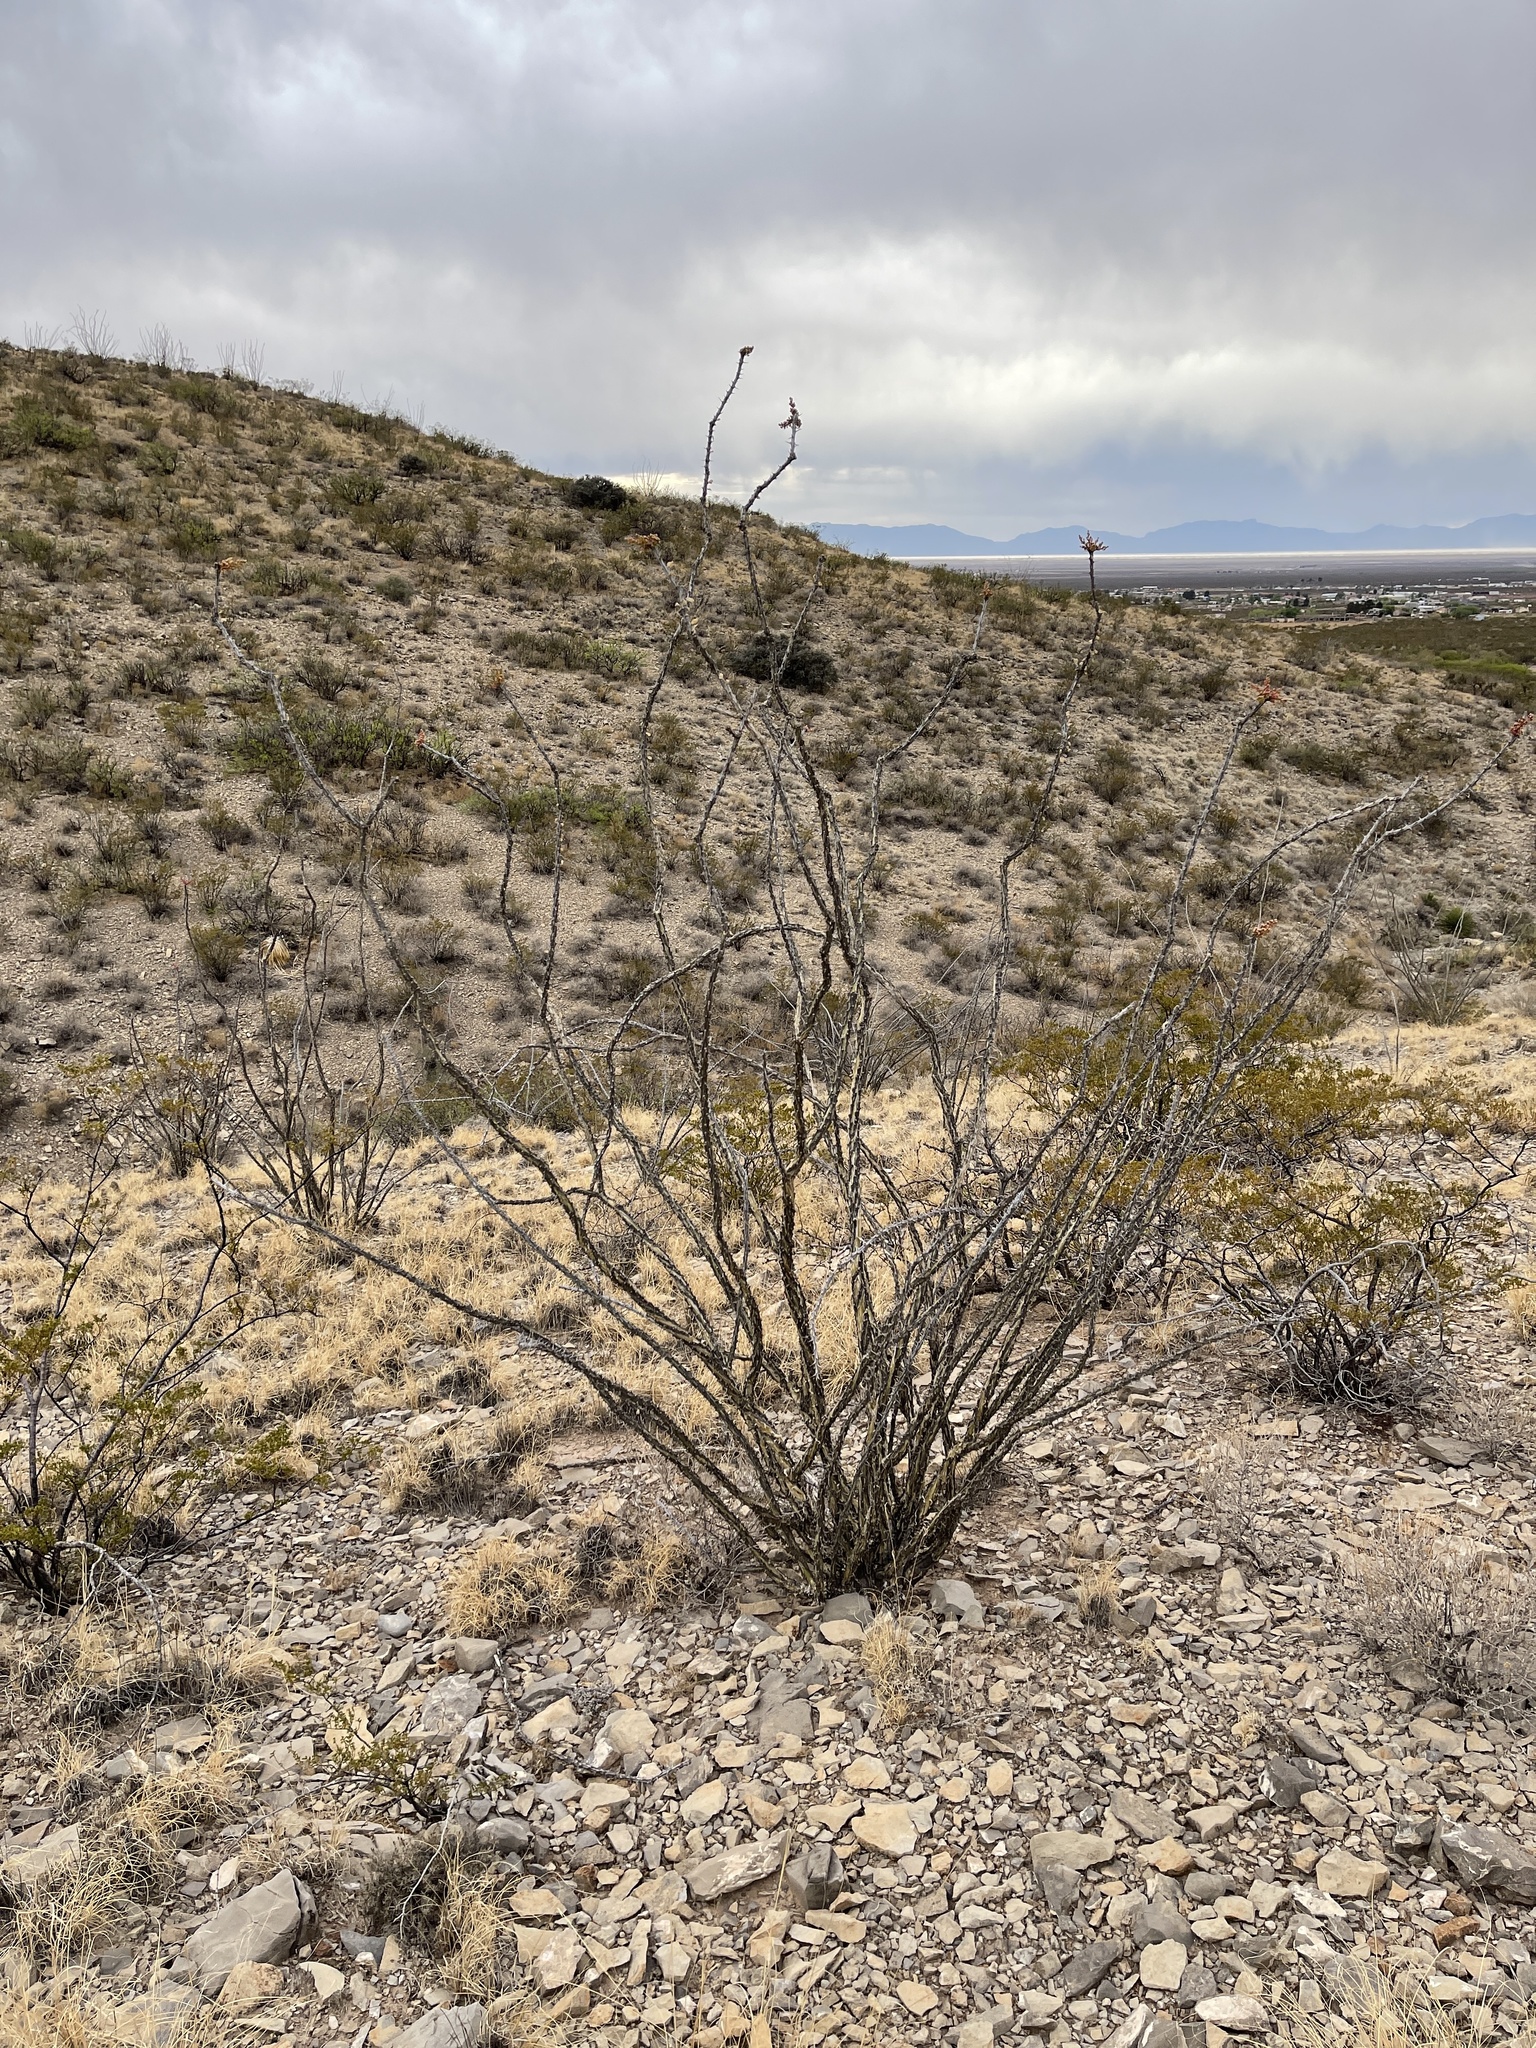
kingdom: Plantae
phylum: Tracheophyta
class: Magnoliopsida
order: Ericales
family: Fouquieriaceae
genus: Fouquieria
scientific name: Fouquieria splendens
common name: Vine-cactus
